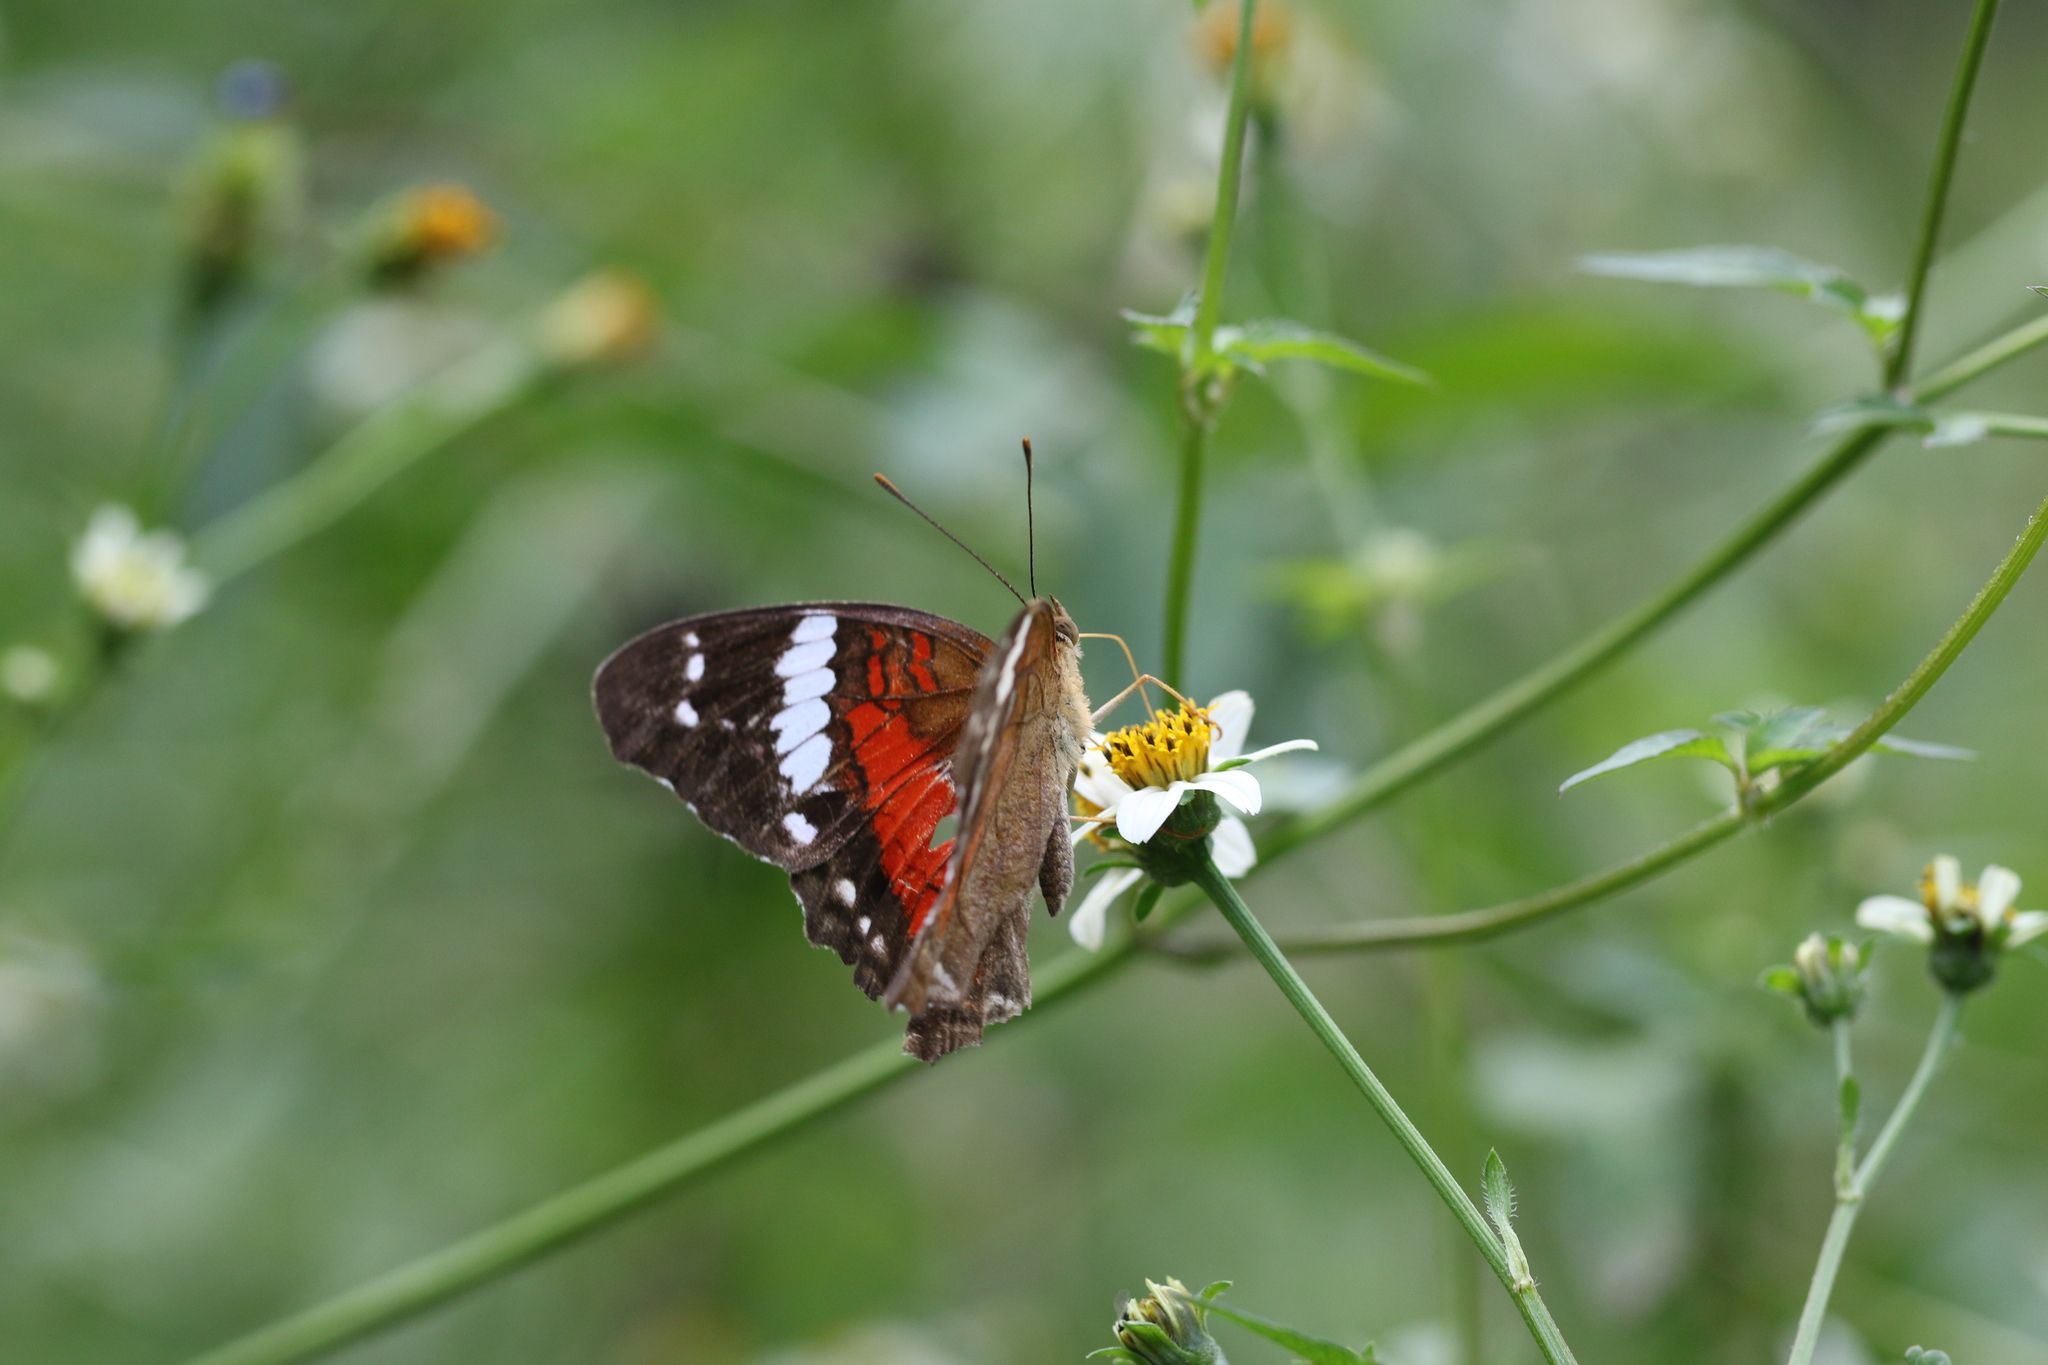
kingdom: Animalia
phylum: Arthropoda
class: Insecta
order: Lepidoptera
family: Nymphalidae
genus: Anartia
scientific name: Anartia amathea
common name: Red peacock
